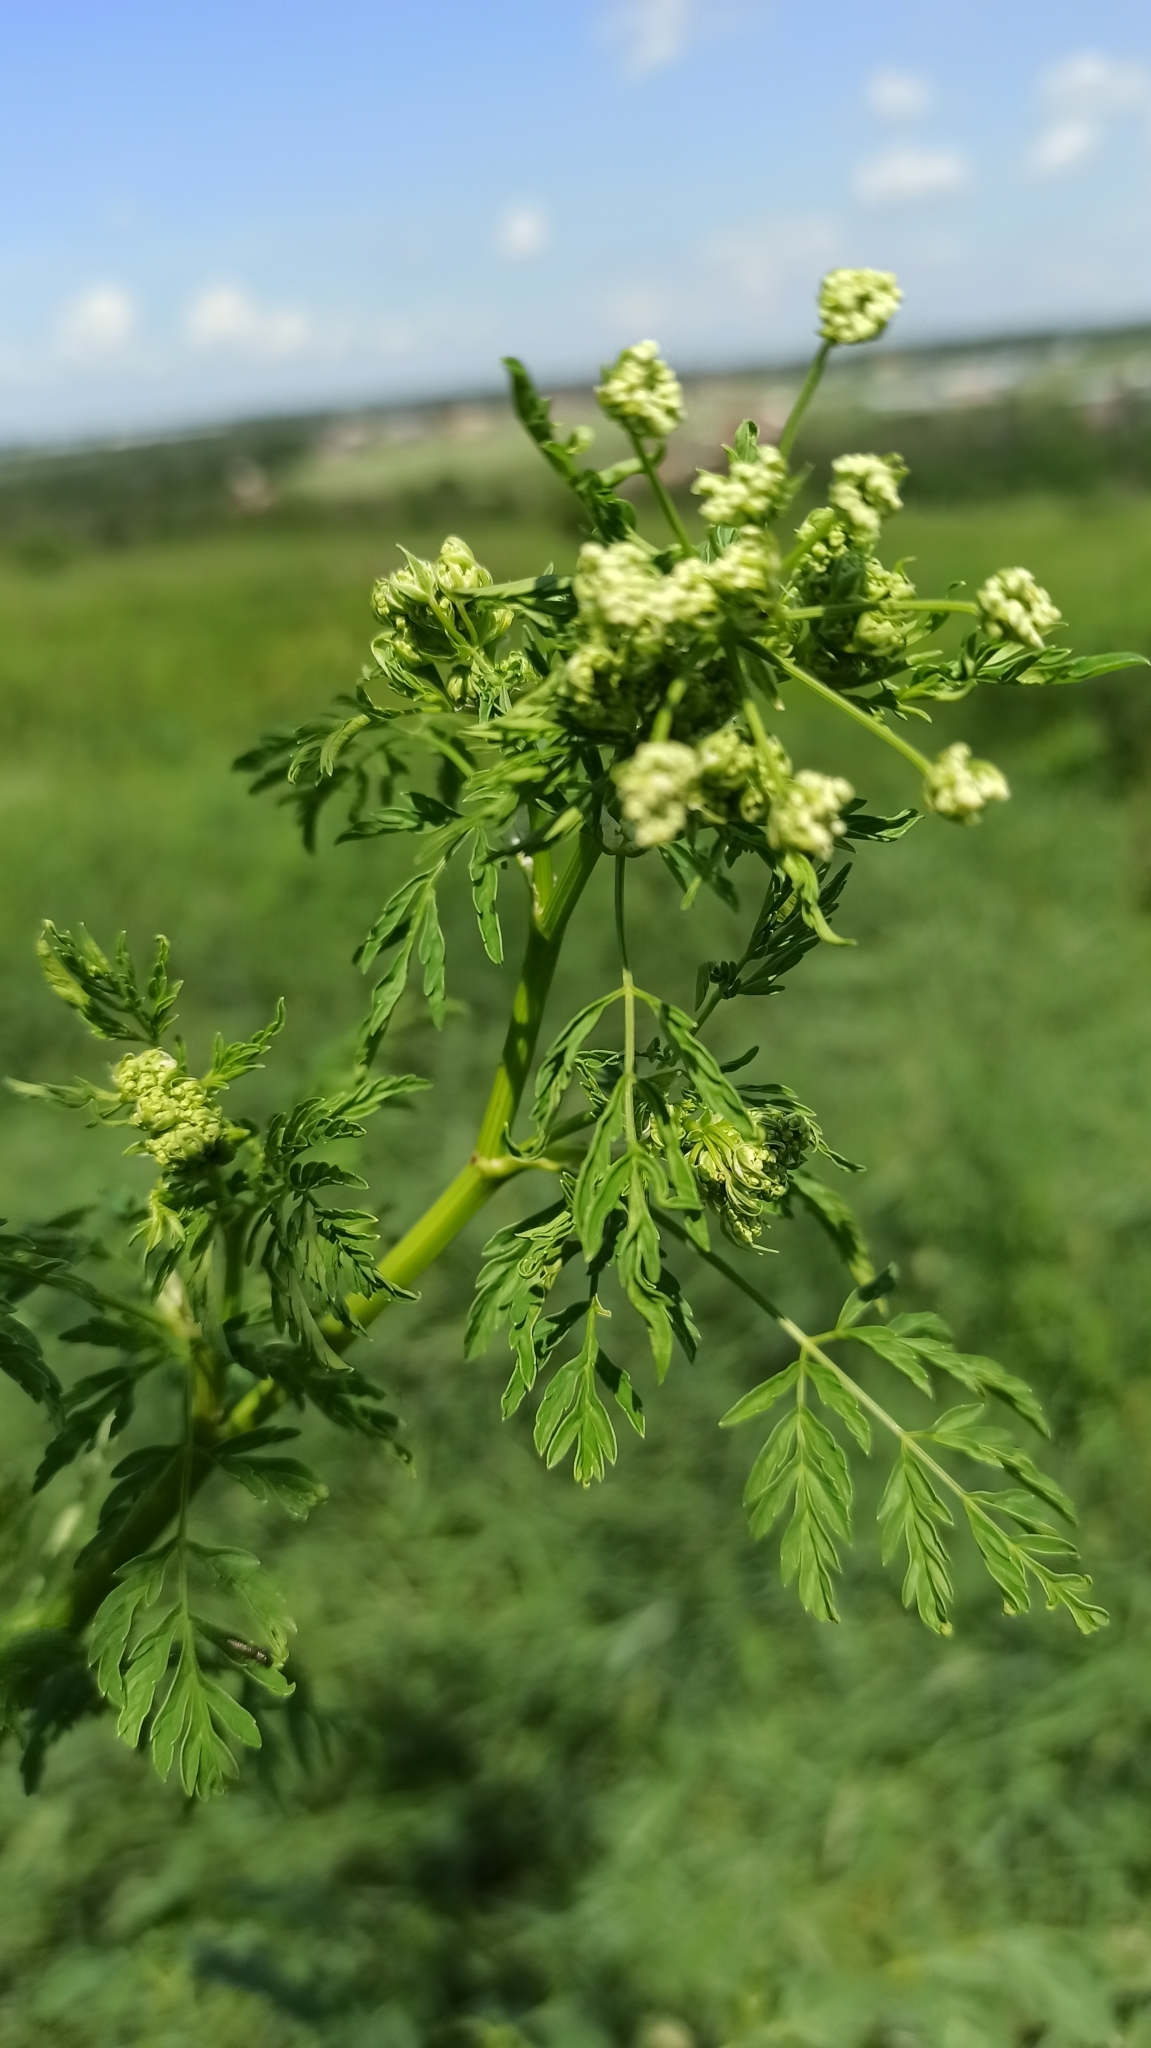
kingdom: Plantae
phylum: Tracheophyta
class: Magnoliopsida
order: Apiales
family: Apiaceae
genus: Conium
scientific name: Conium maculatum
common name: Hemlock
